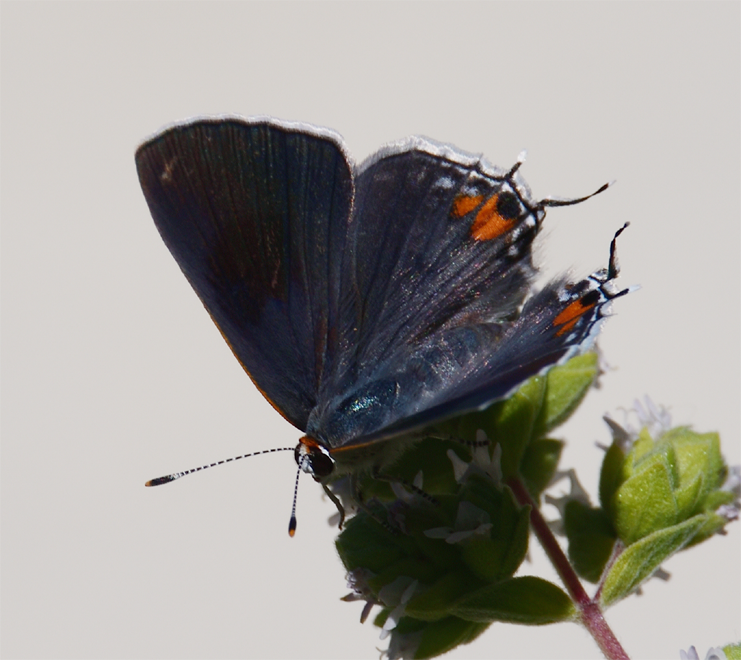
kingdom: Animalia
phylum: Arthropoda
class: Insecta
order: Lepidoptera
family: Lycaenidae
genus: Strymon
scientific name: Strymon melinus
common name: Gray hairstreak
